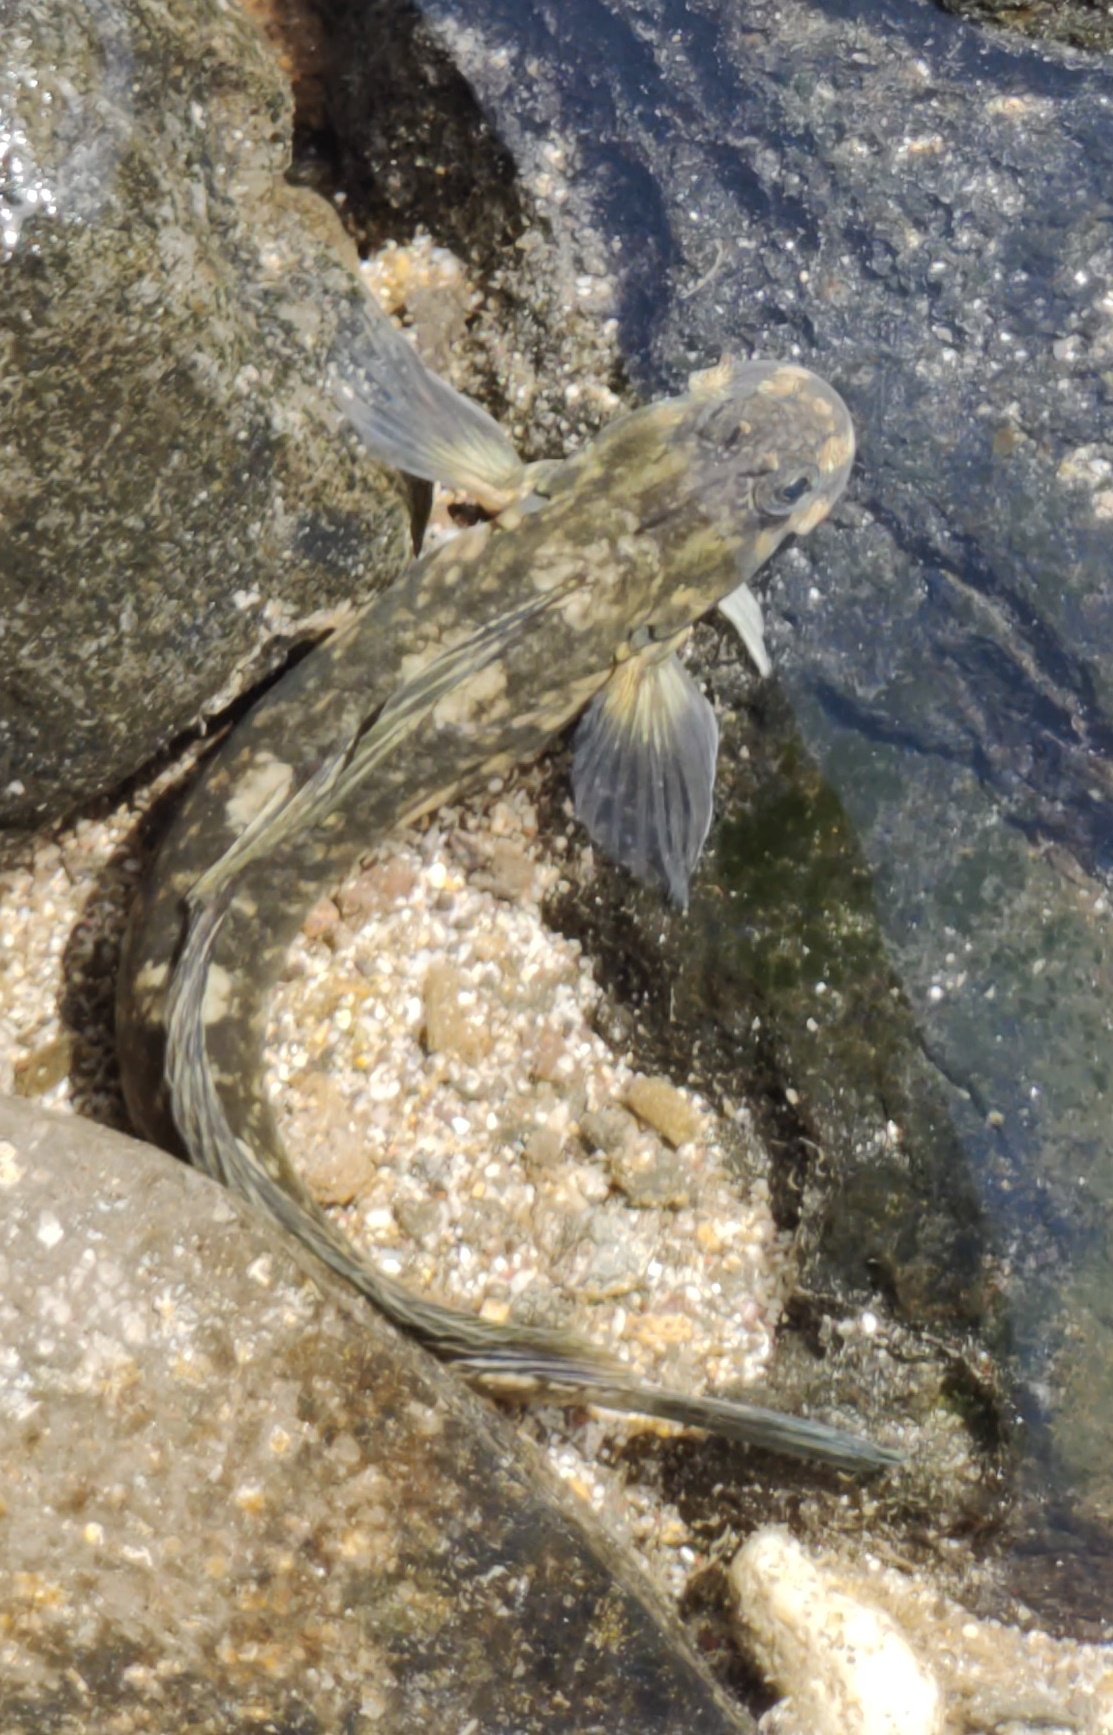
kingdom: Animalia
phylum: Chordata
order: Perciformes
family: Blenniidae
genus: Istiblennius
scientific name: Istiblennius zebra
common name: Zebra blenny
